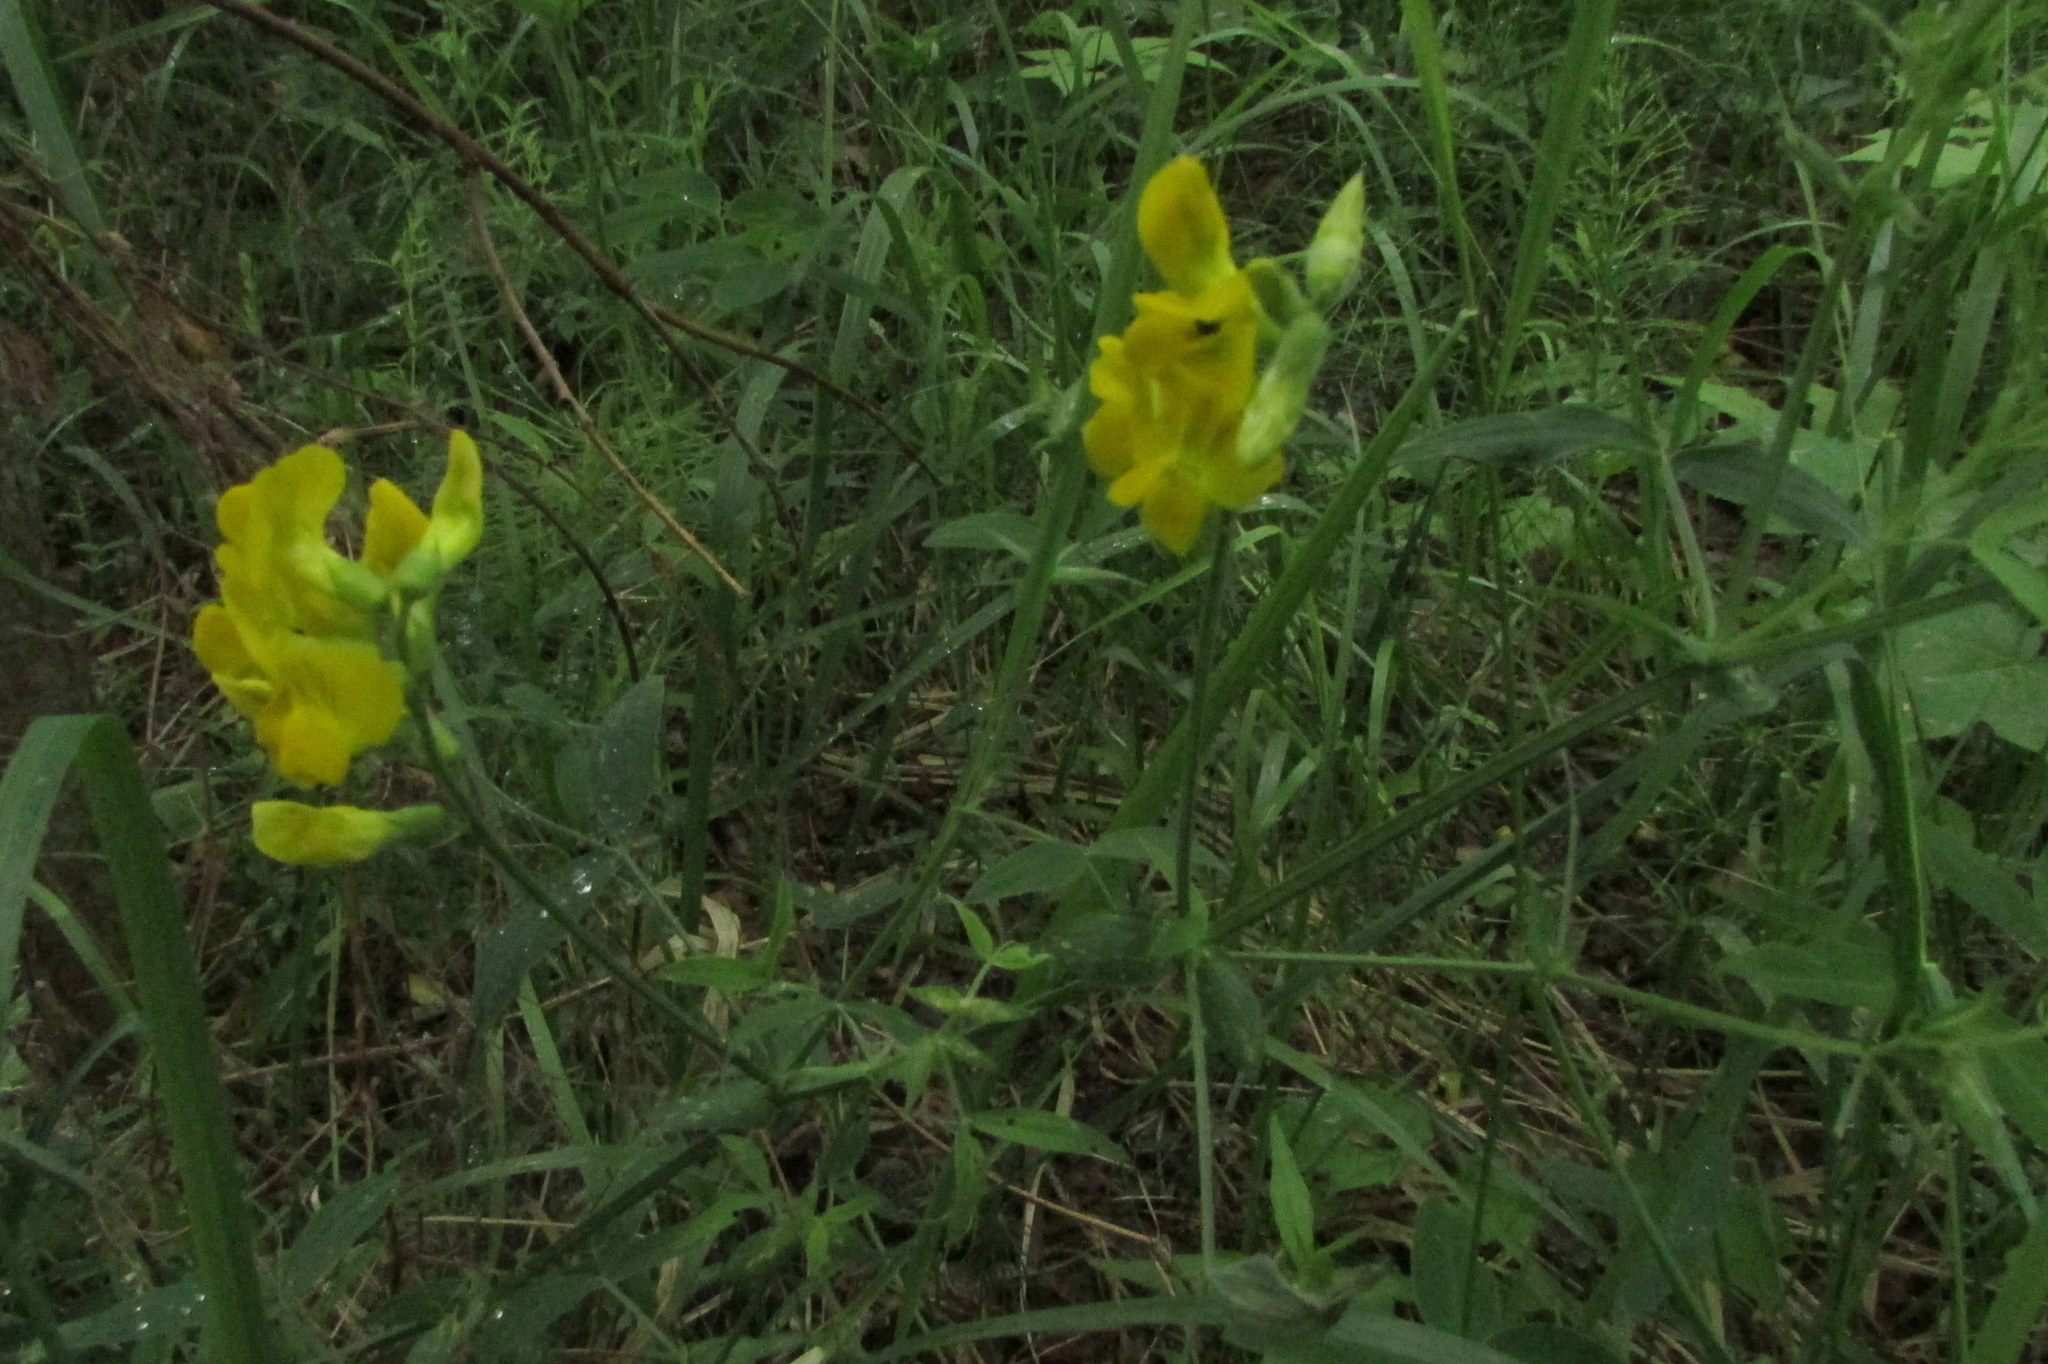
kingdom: Plantae
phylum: Tracheophyta
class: Magnoliopsida
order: Fabales
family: Fabaceae
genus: Lathyrus
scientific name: Lathyrus pratensis
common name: Meadow vetchling
